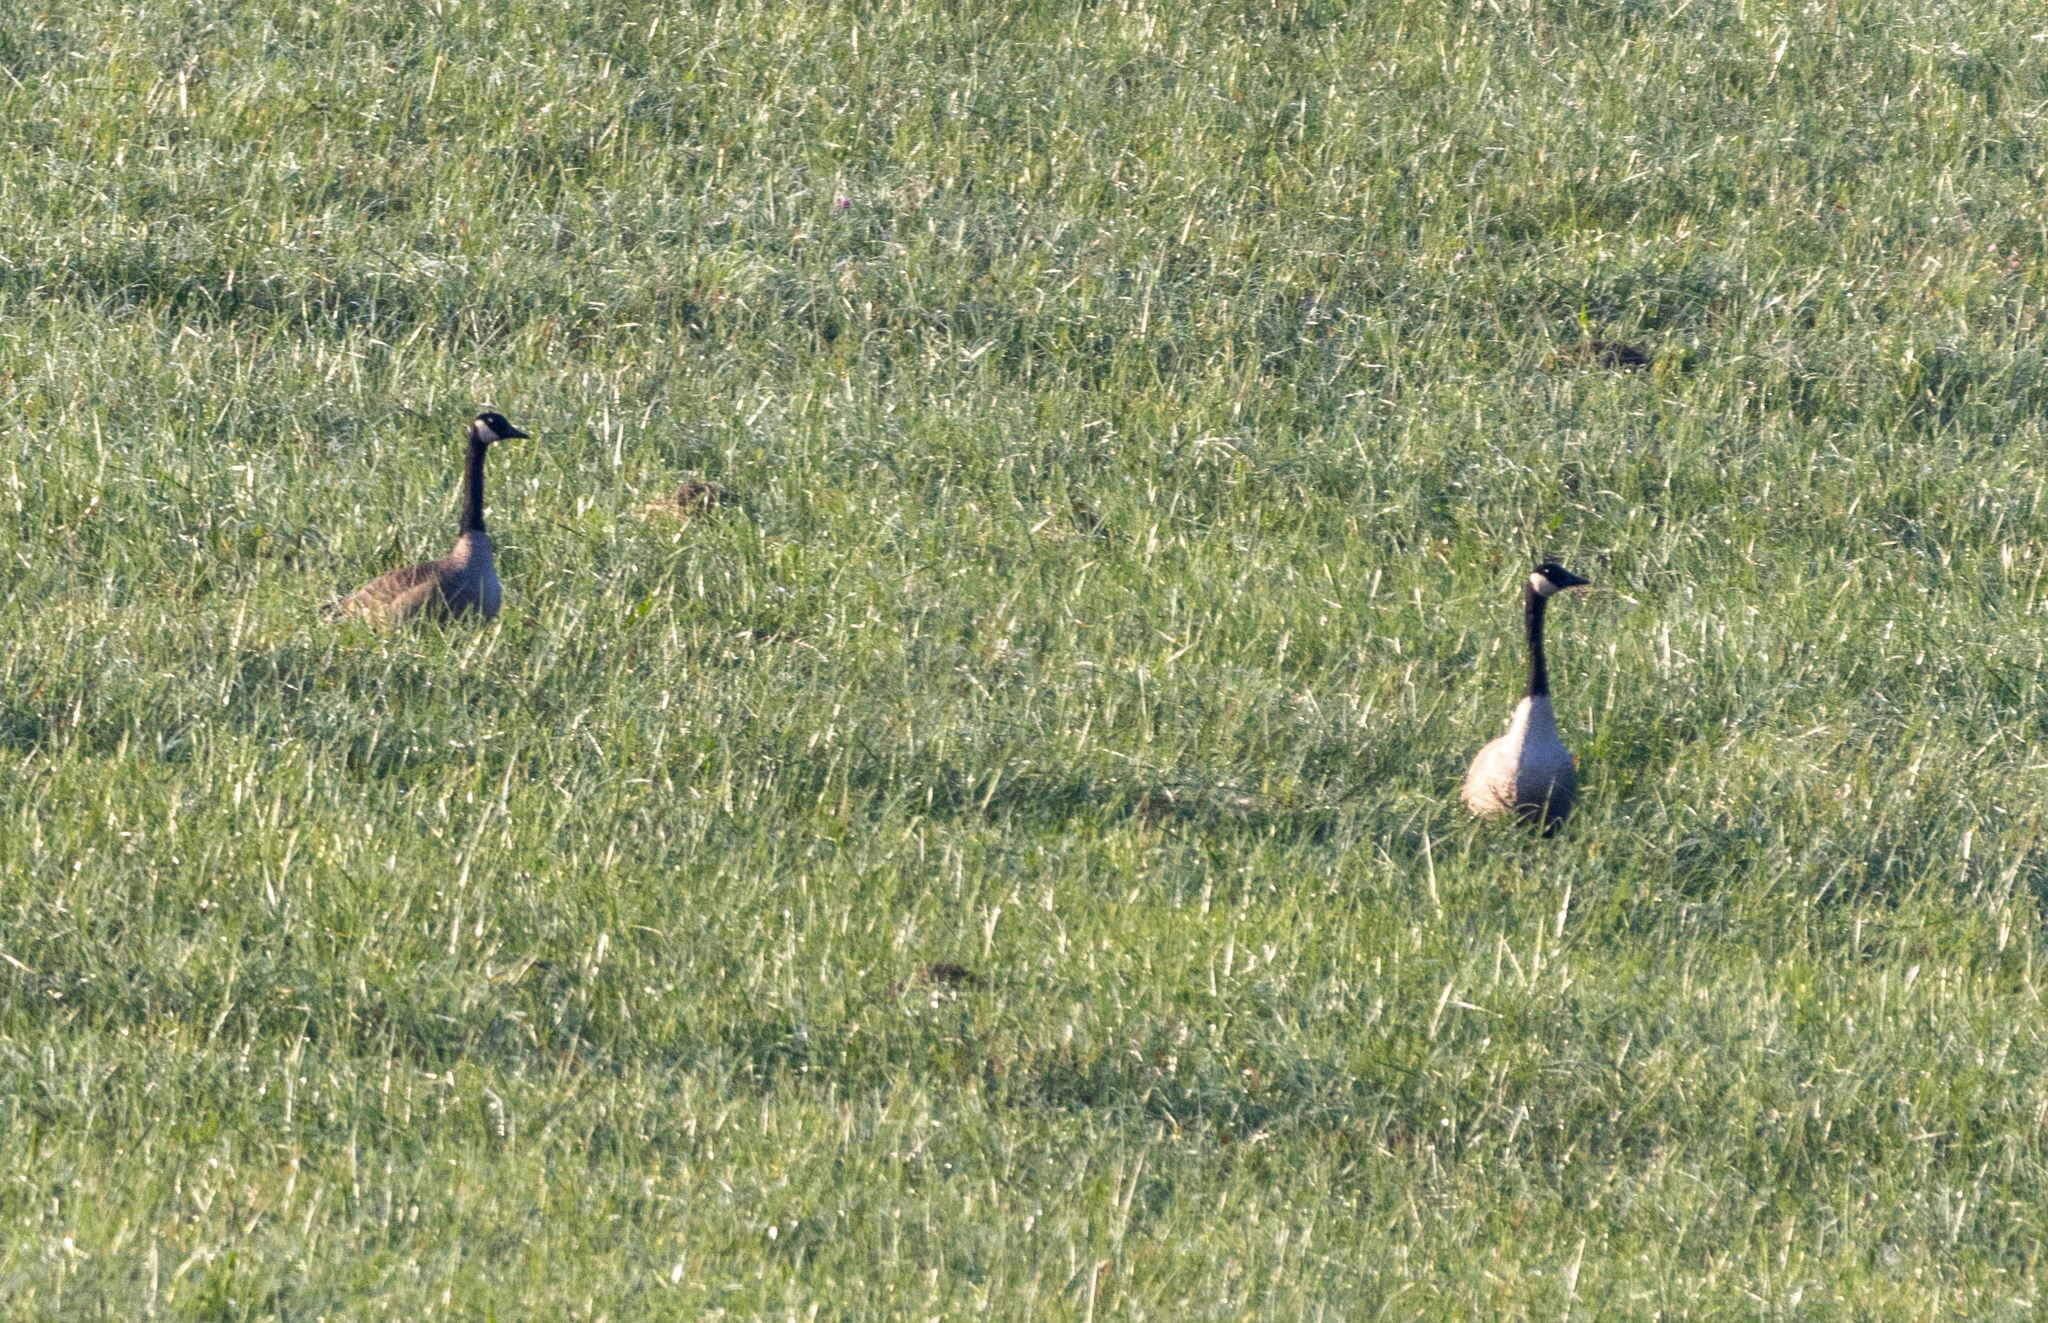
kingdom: Animalia
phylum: Chordata
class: Aves
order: Anseriformes
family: Anatidae
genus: Branta
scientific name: Branta canadensis
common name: Canada goose
